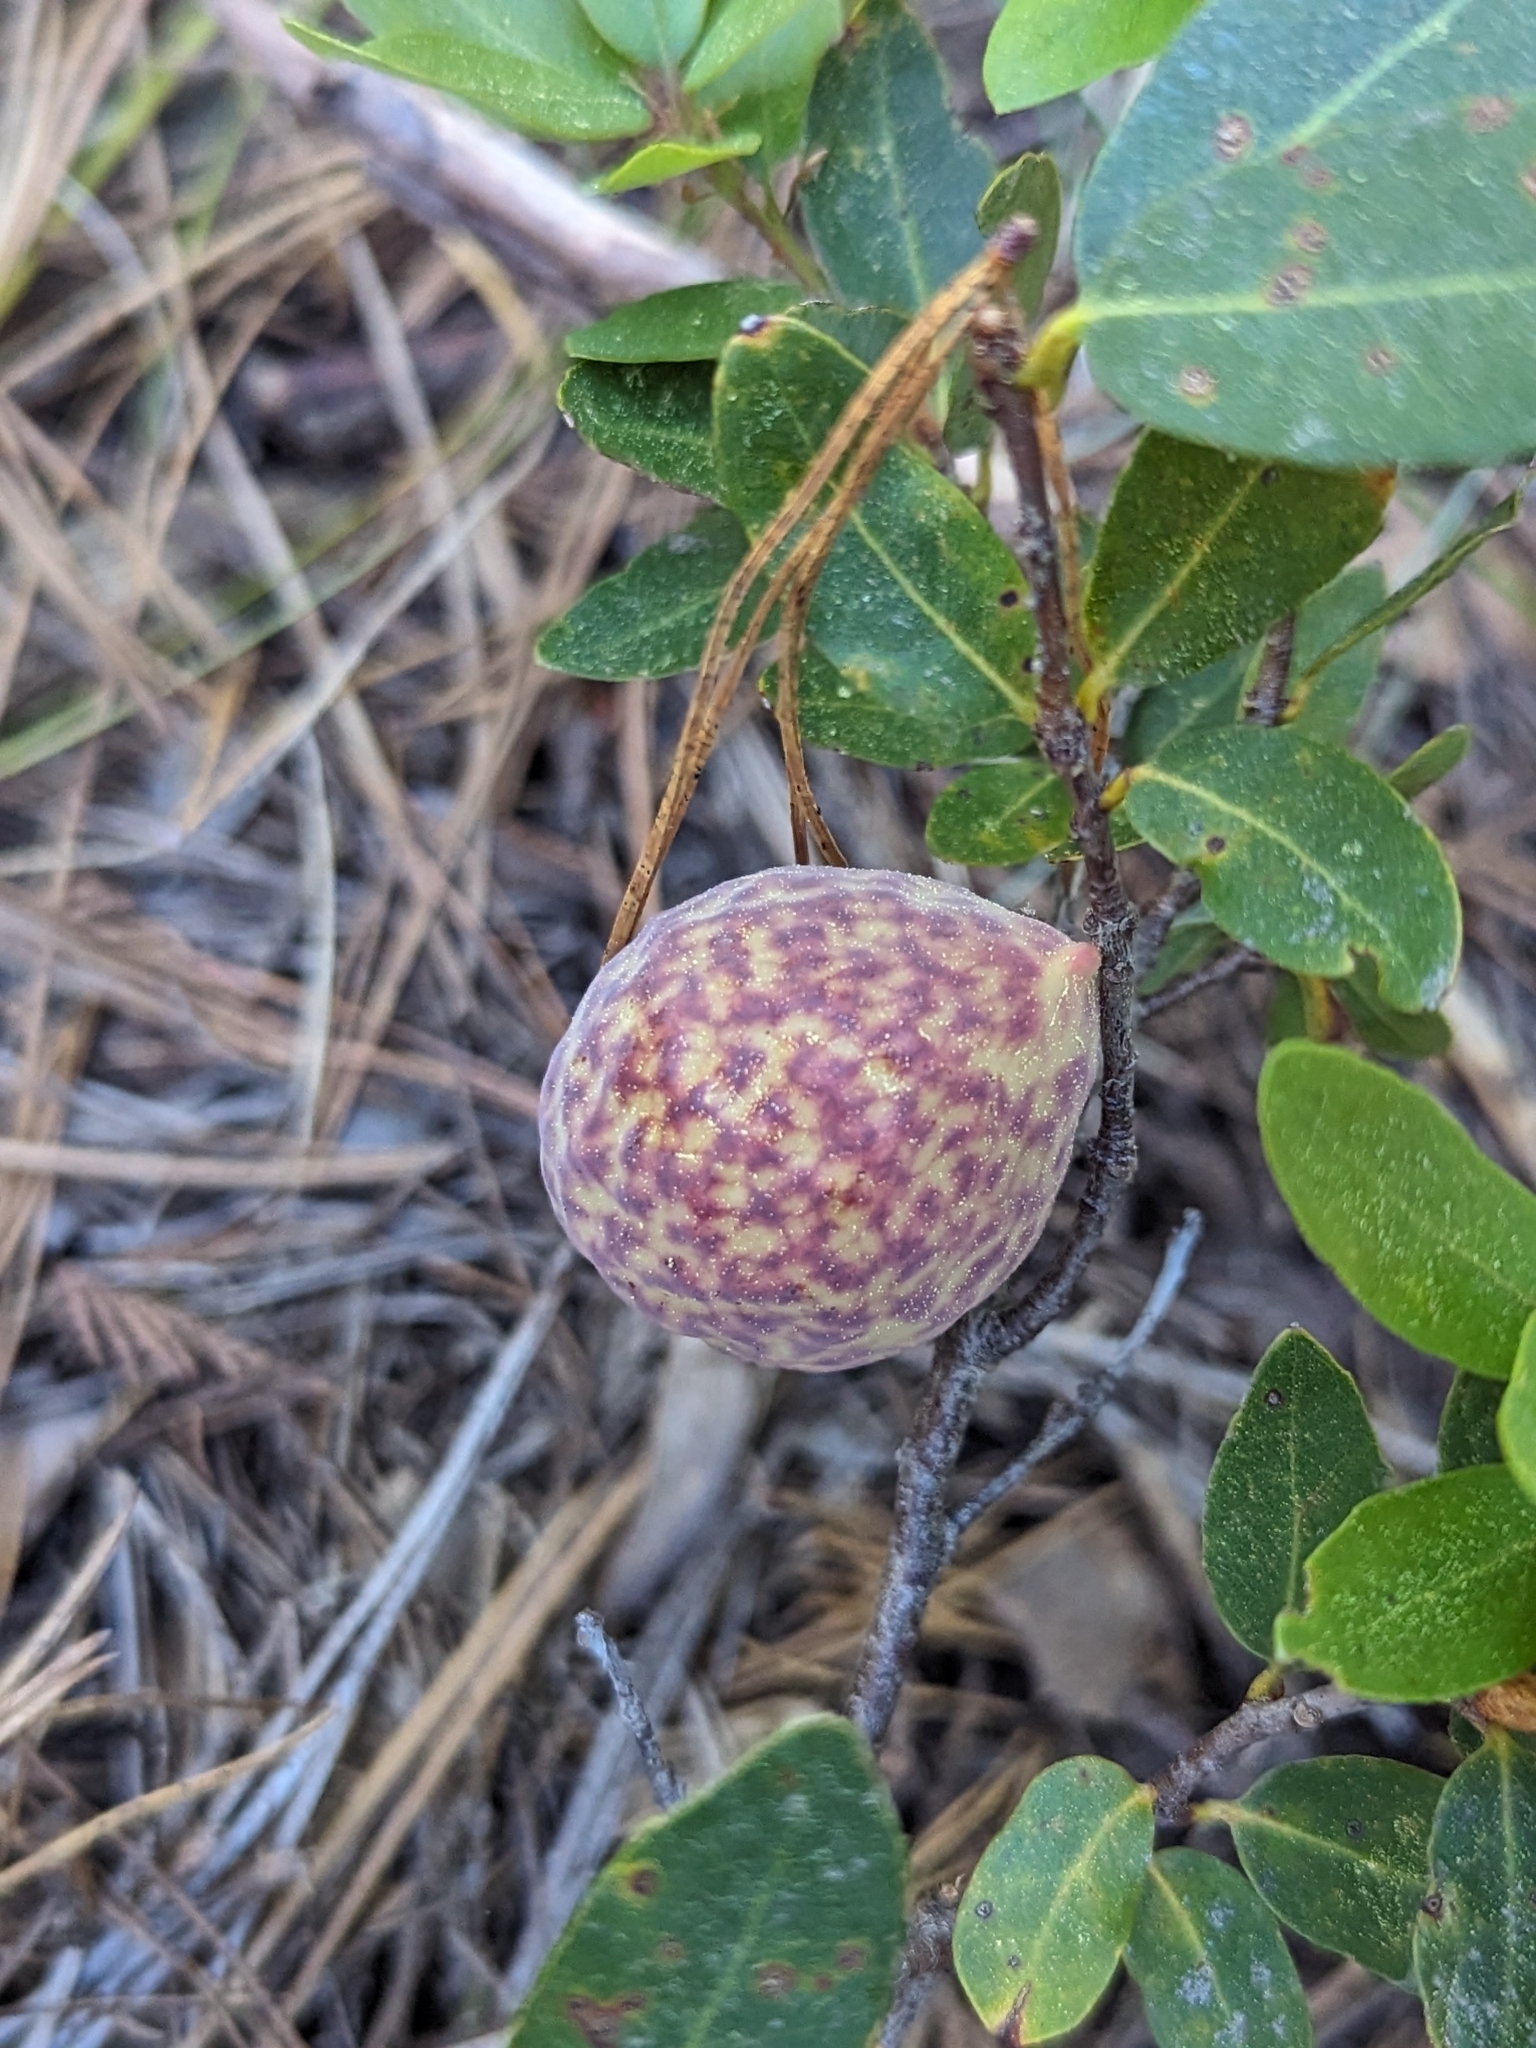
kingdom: Animalia
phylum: Arthropoda
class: Insecta
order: Hymenoptera
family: Cynipidae
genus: Andricus
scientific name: Andricus
